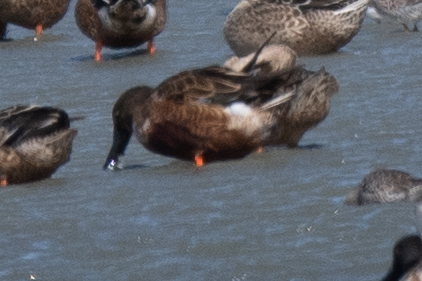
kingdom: Animalia
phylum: Chordata
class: Aves
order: Anseriformes
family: Anatidae
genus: Spatula
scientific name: Spatula clypeata
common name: Northern shoveler
